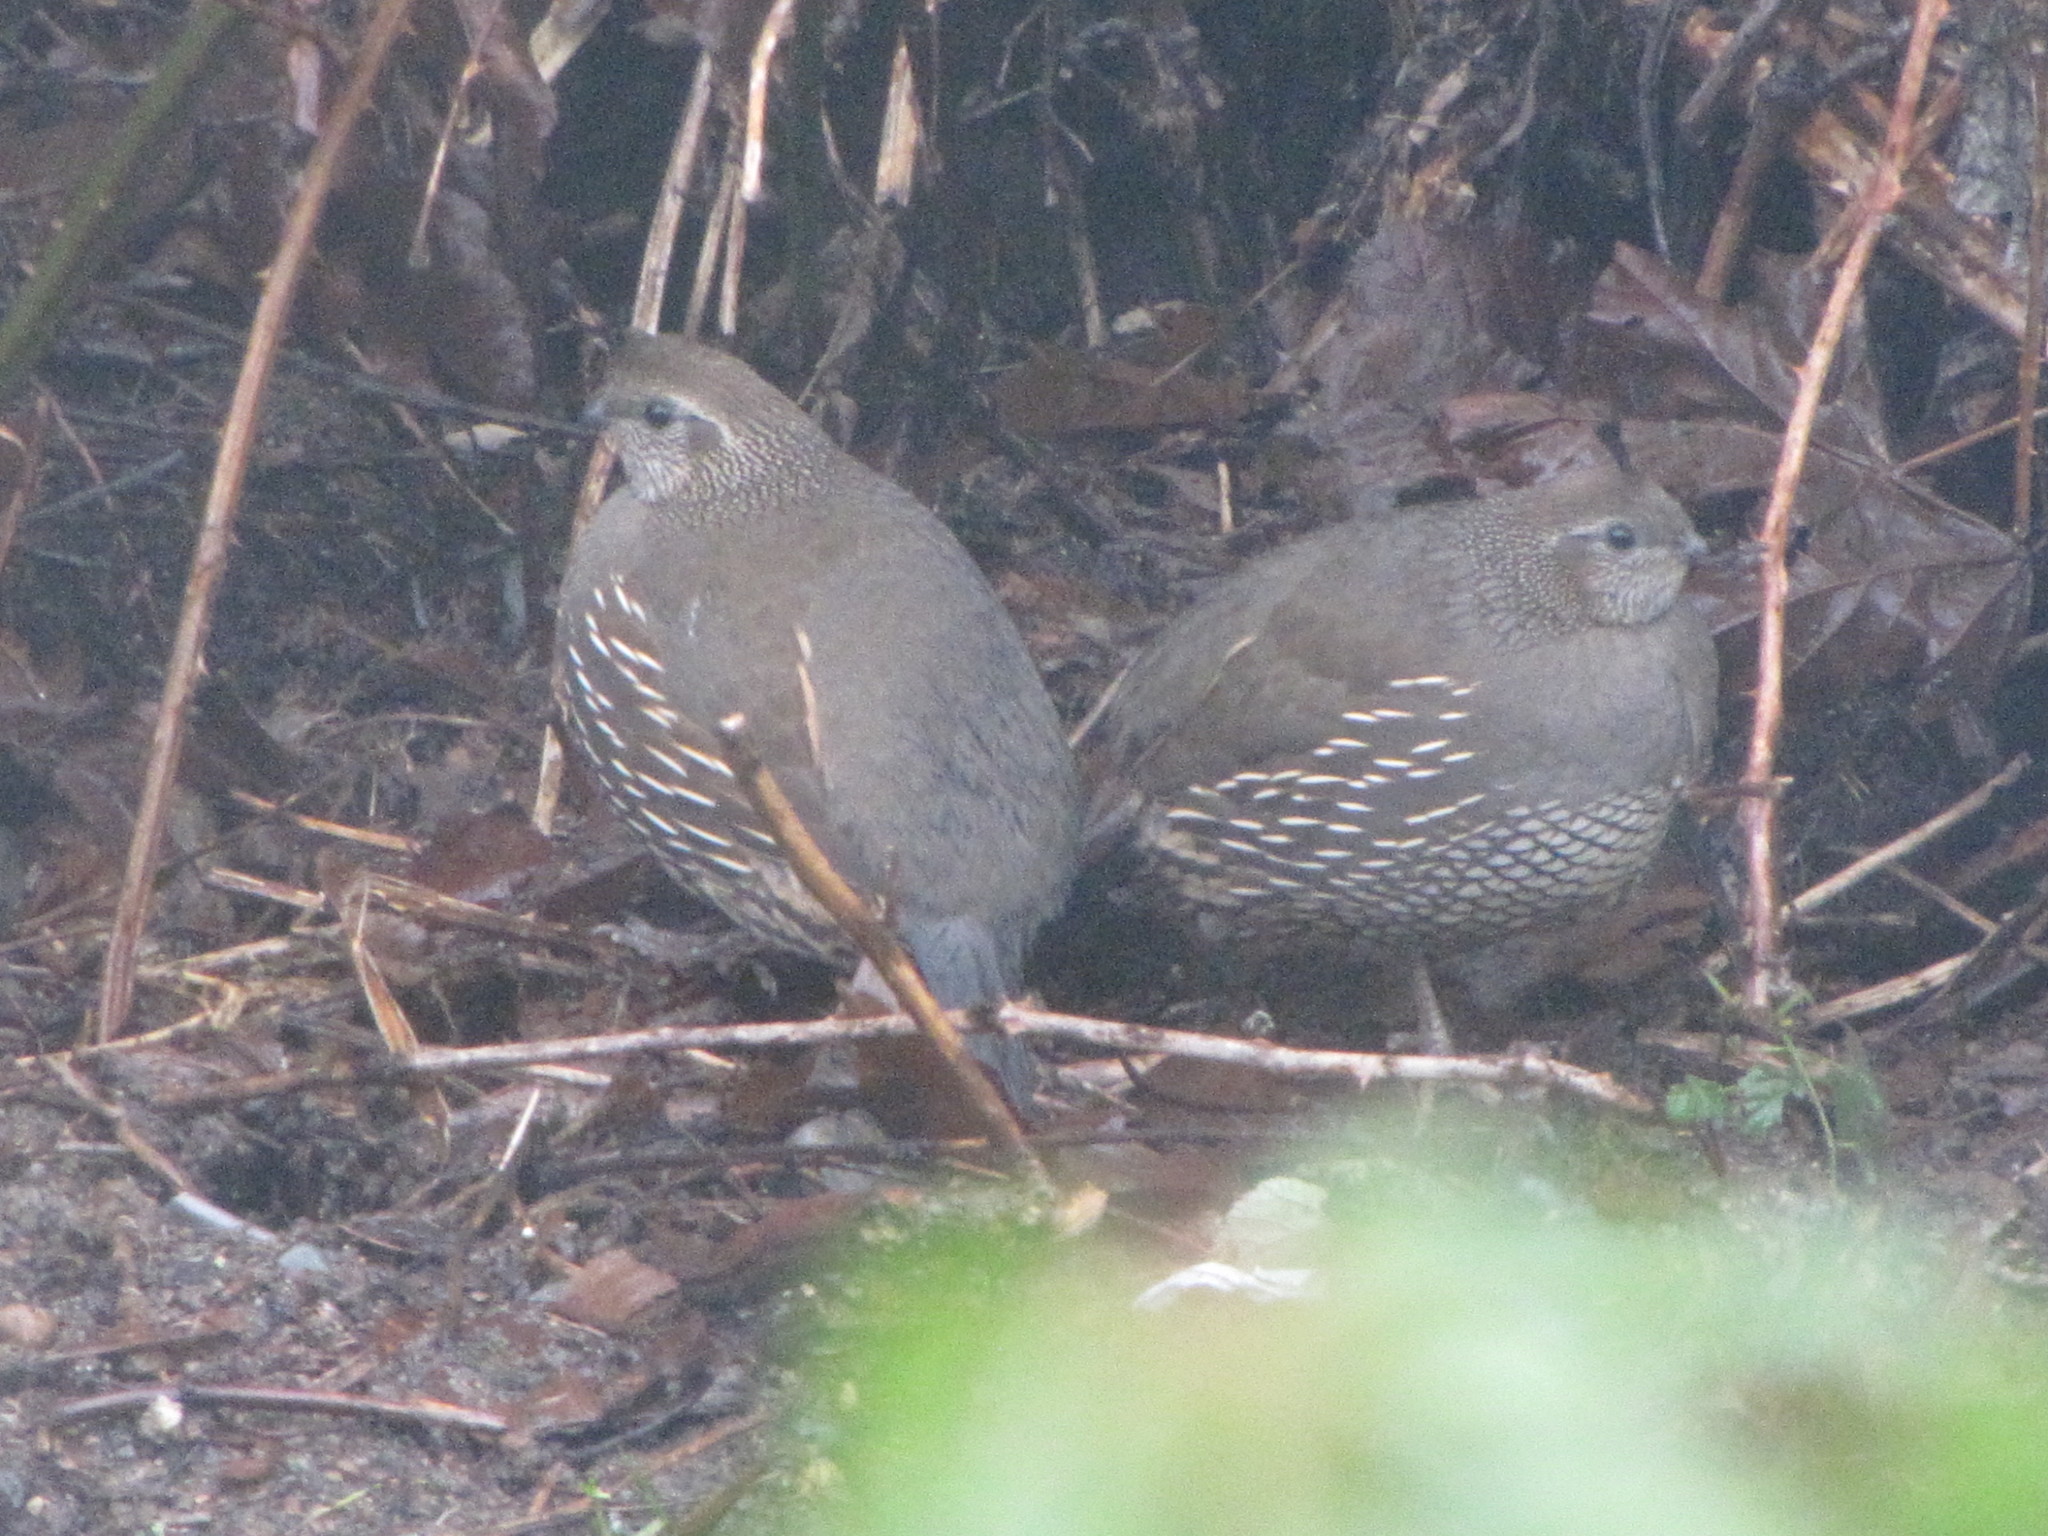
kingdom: Animalia
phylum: Chordata
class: Aves
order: Galliformes
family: Odontophoridae
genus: Callipepla
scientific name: Callipepla californica
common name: California quail
